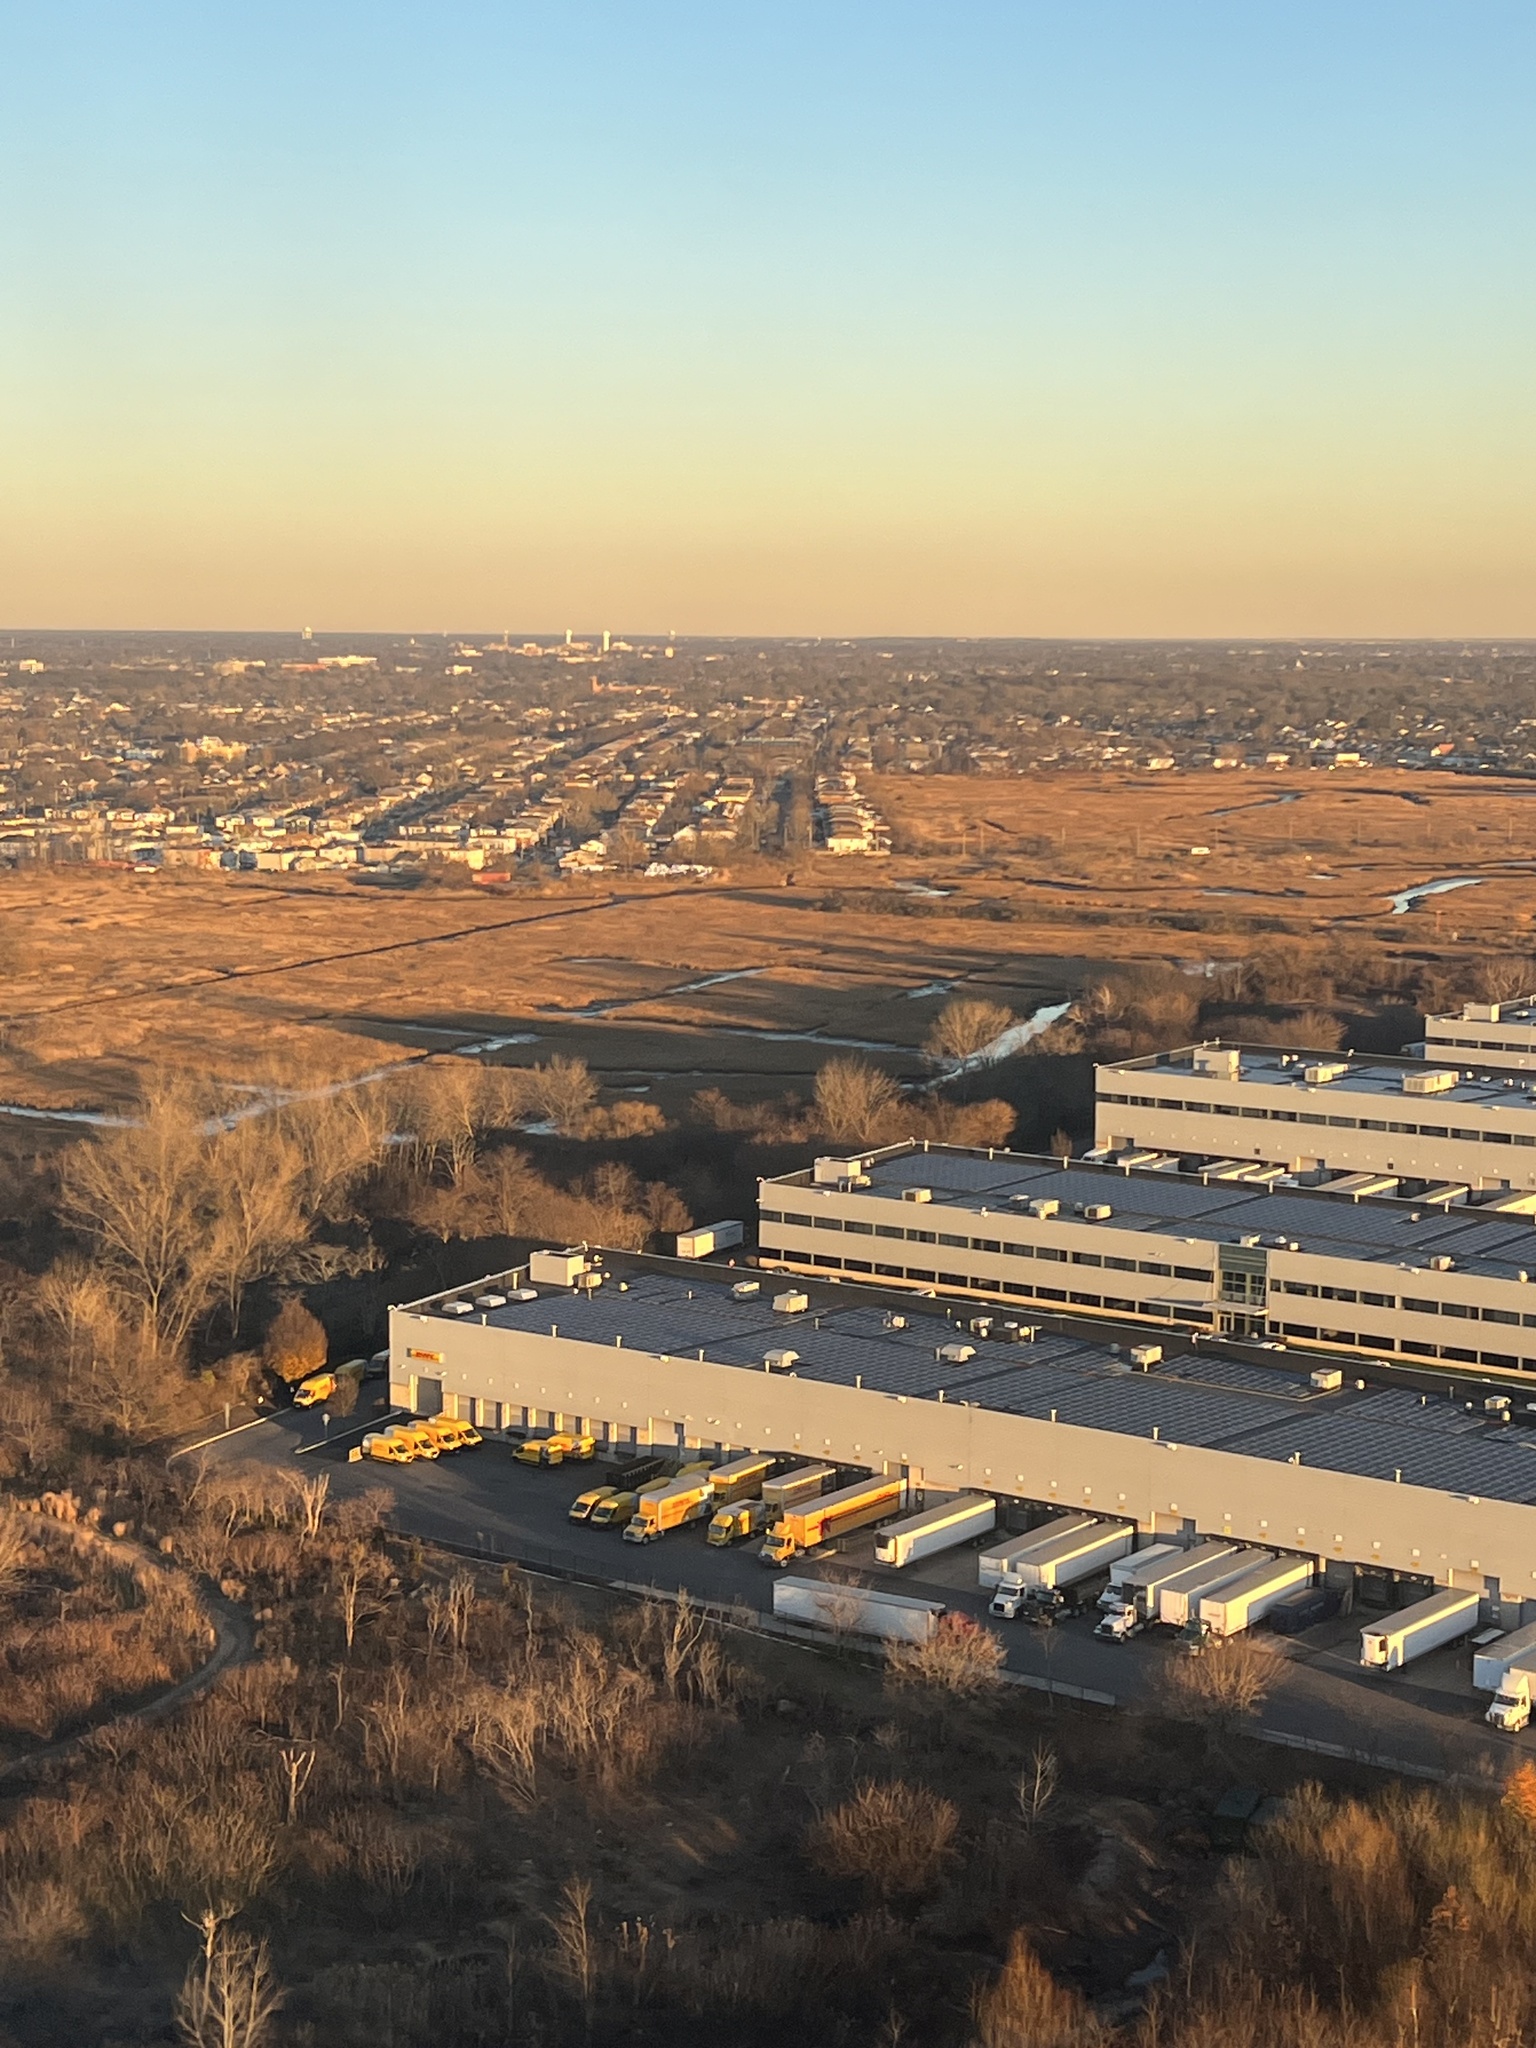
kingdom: Plantae
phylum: Tracheophyta
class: Liliopsida
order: Poales
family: Poaceae
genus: Sporobolus
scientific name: Sporobolus pumilus
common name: Highwater grass
